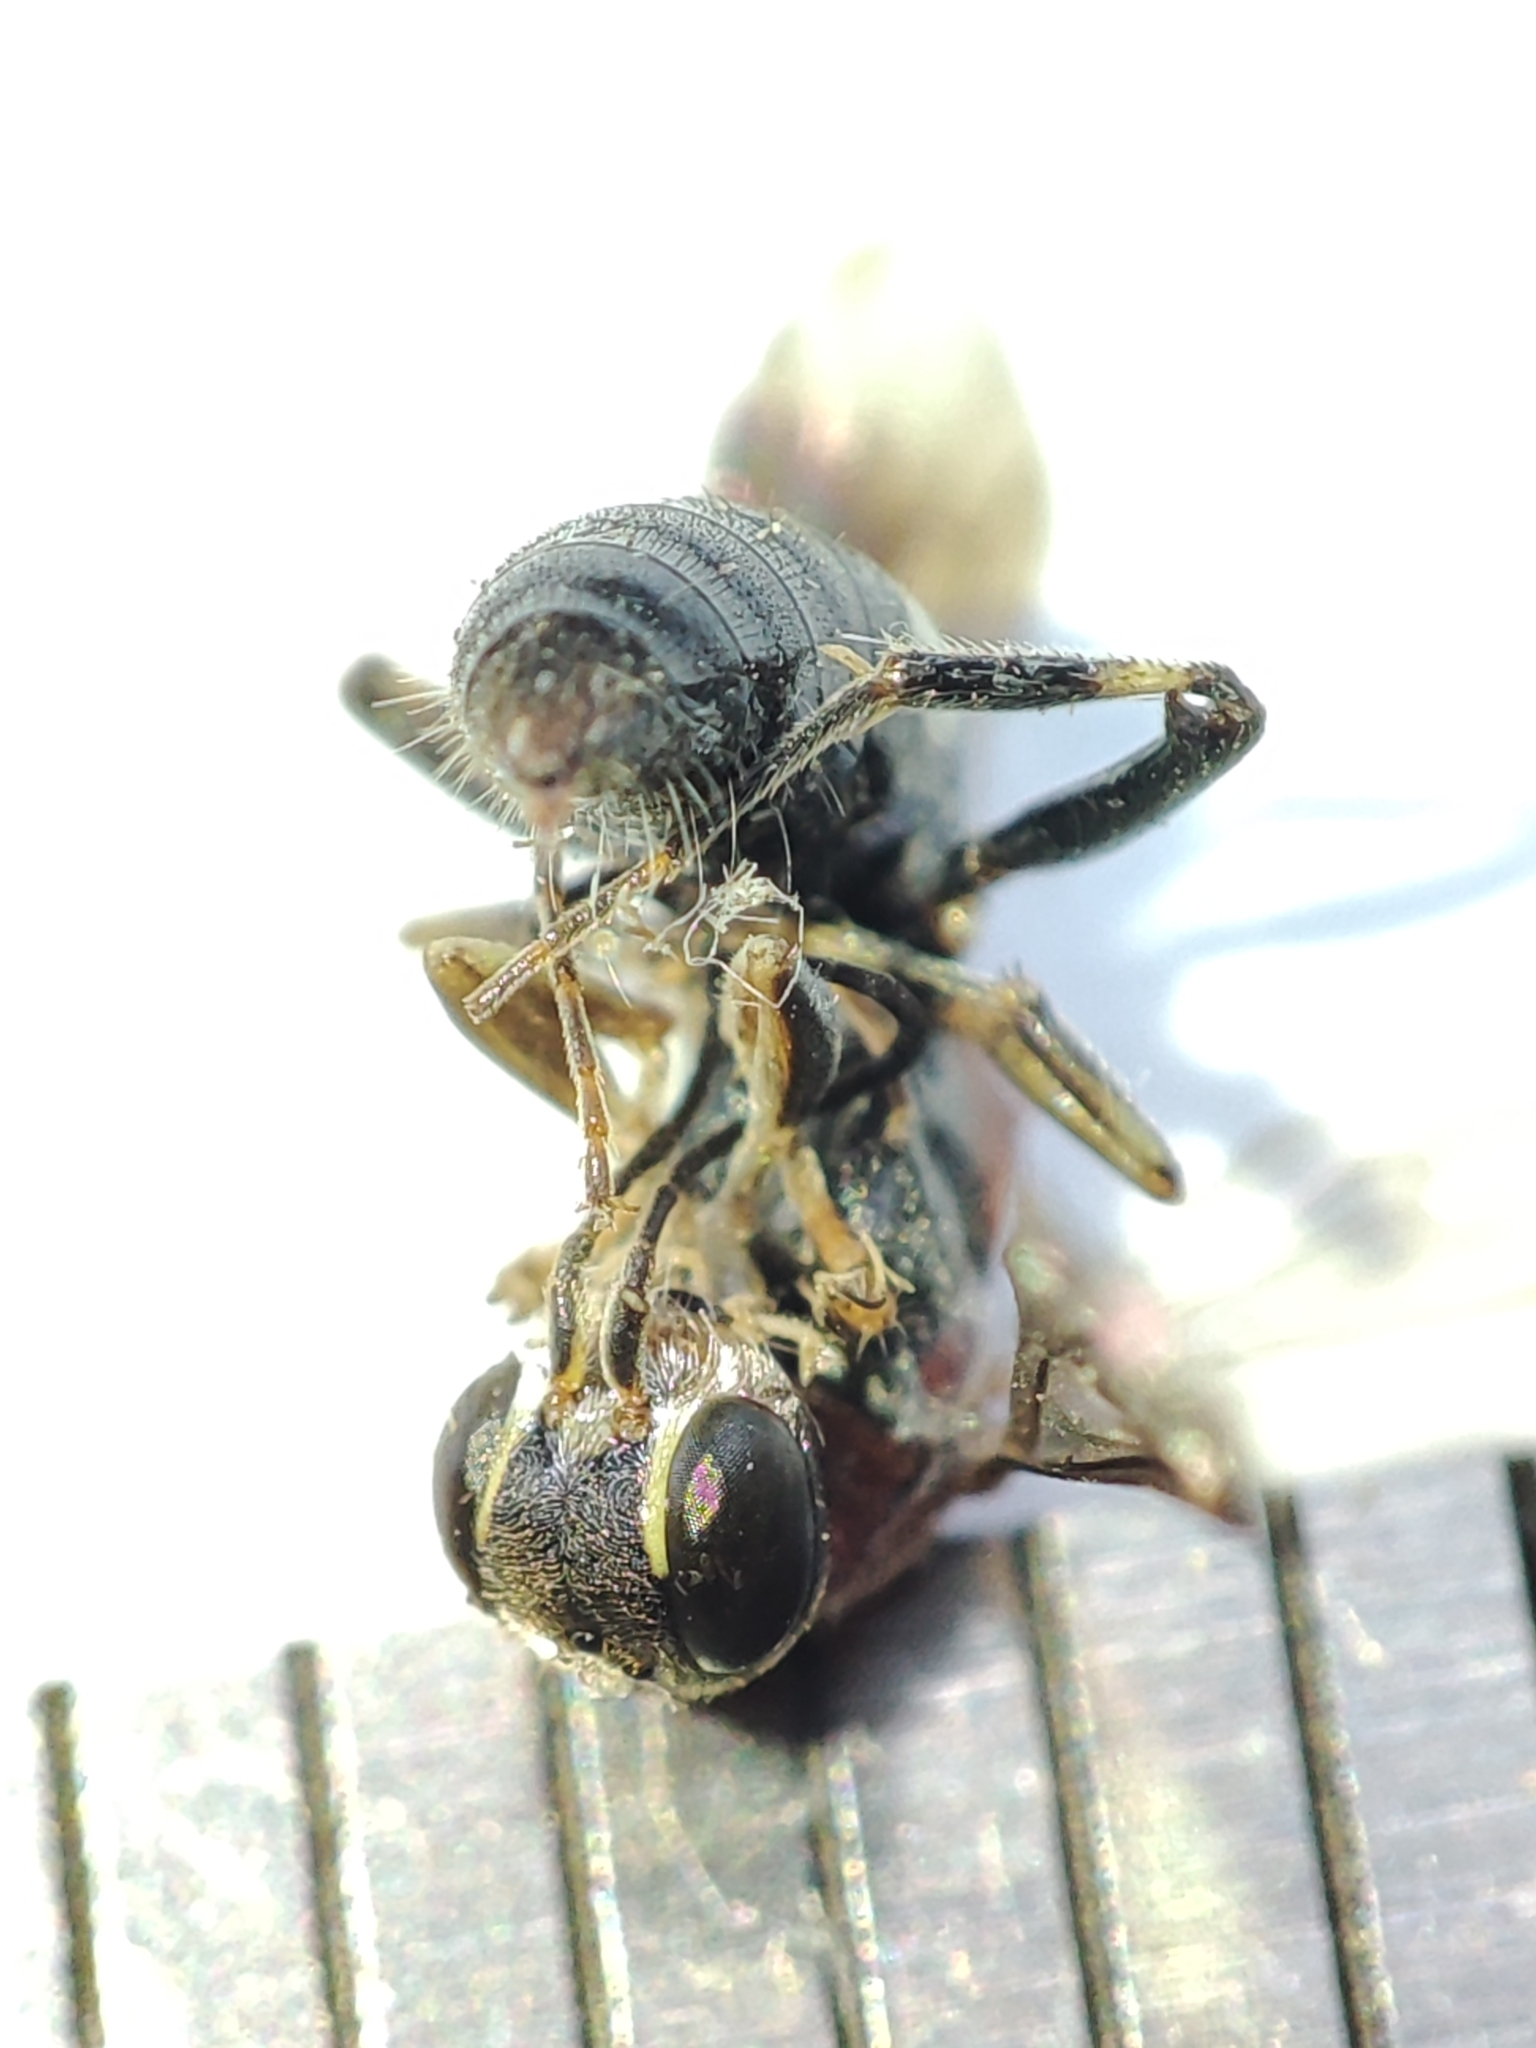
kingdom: Animalia
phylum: Arthropoda
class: Insecta
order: Hymenoptera
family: Crabronidae
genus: Alysson
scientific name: Alysson tricolor
